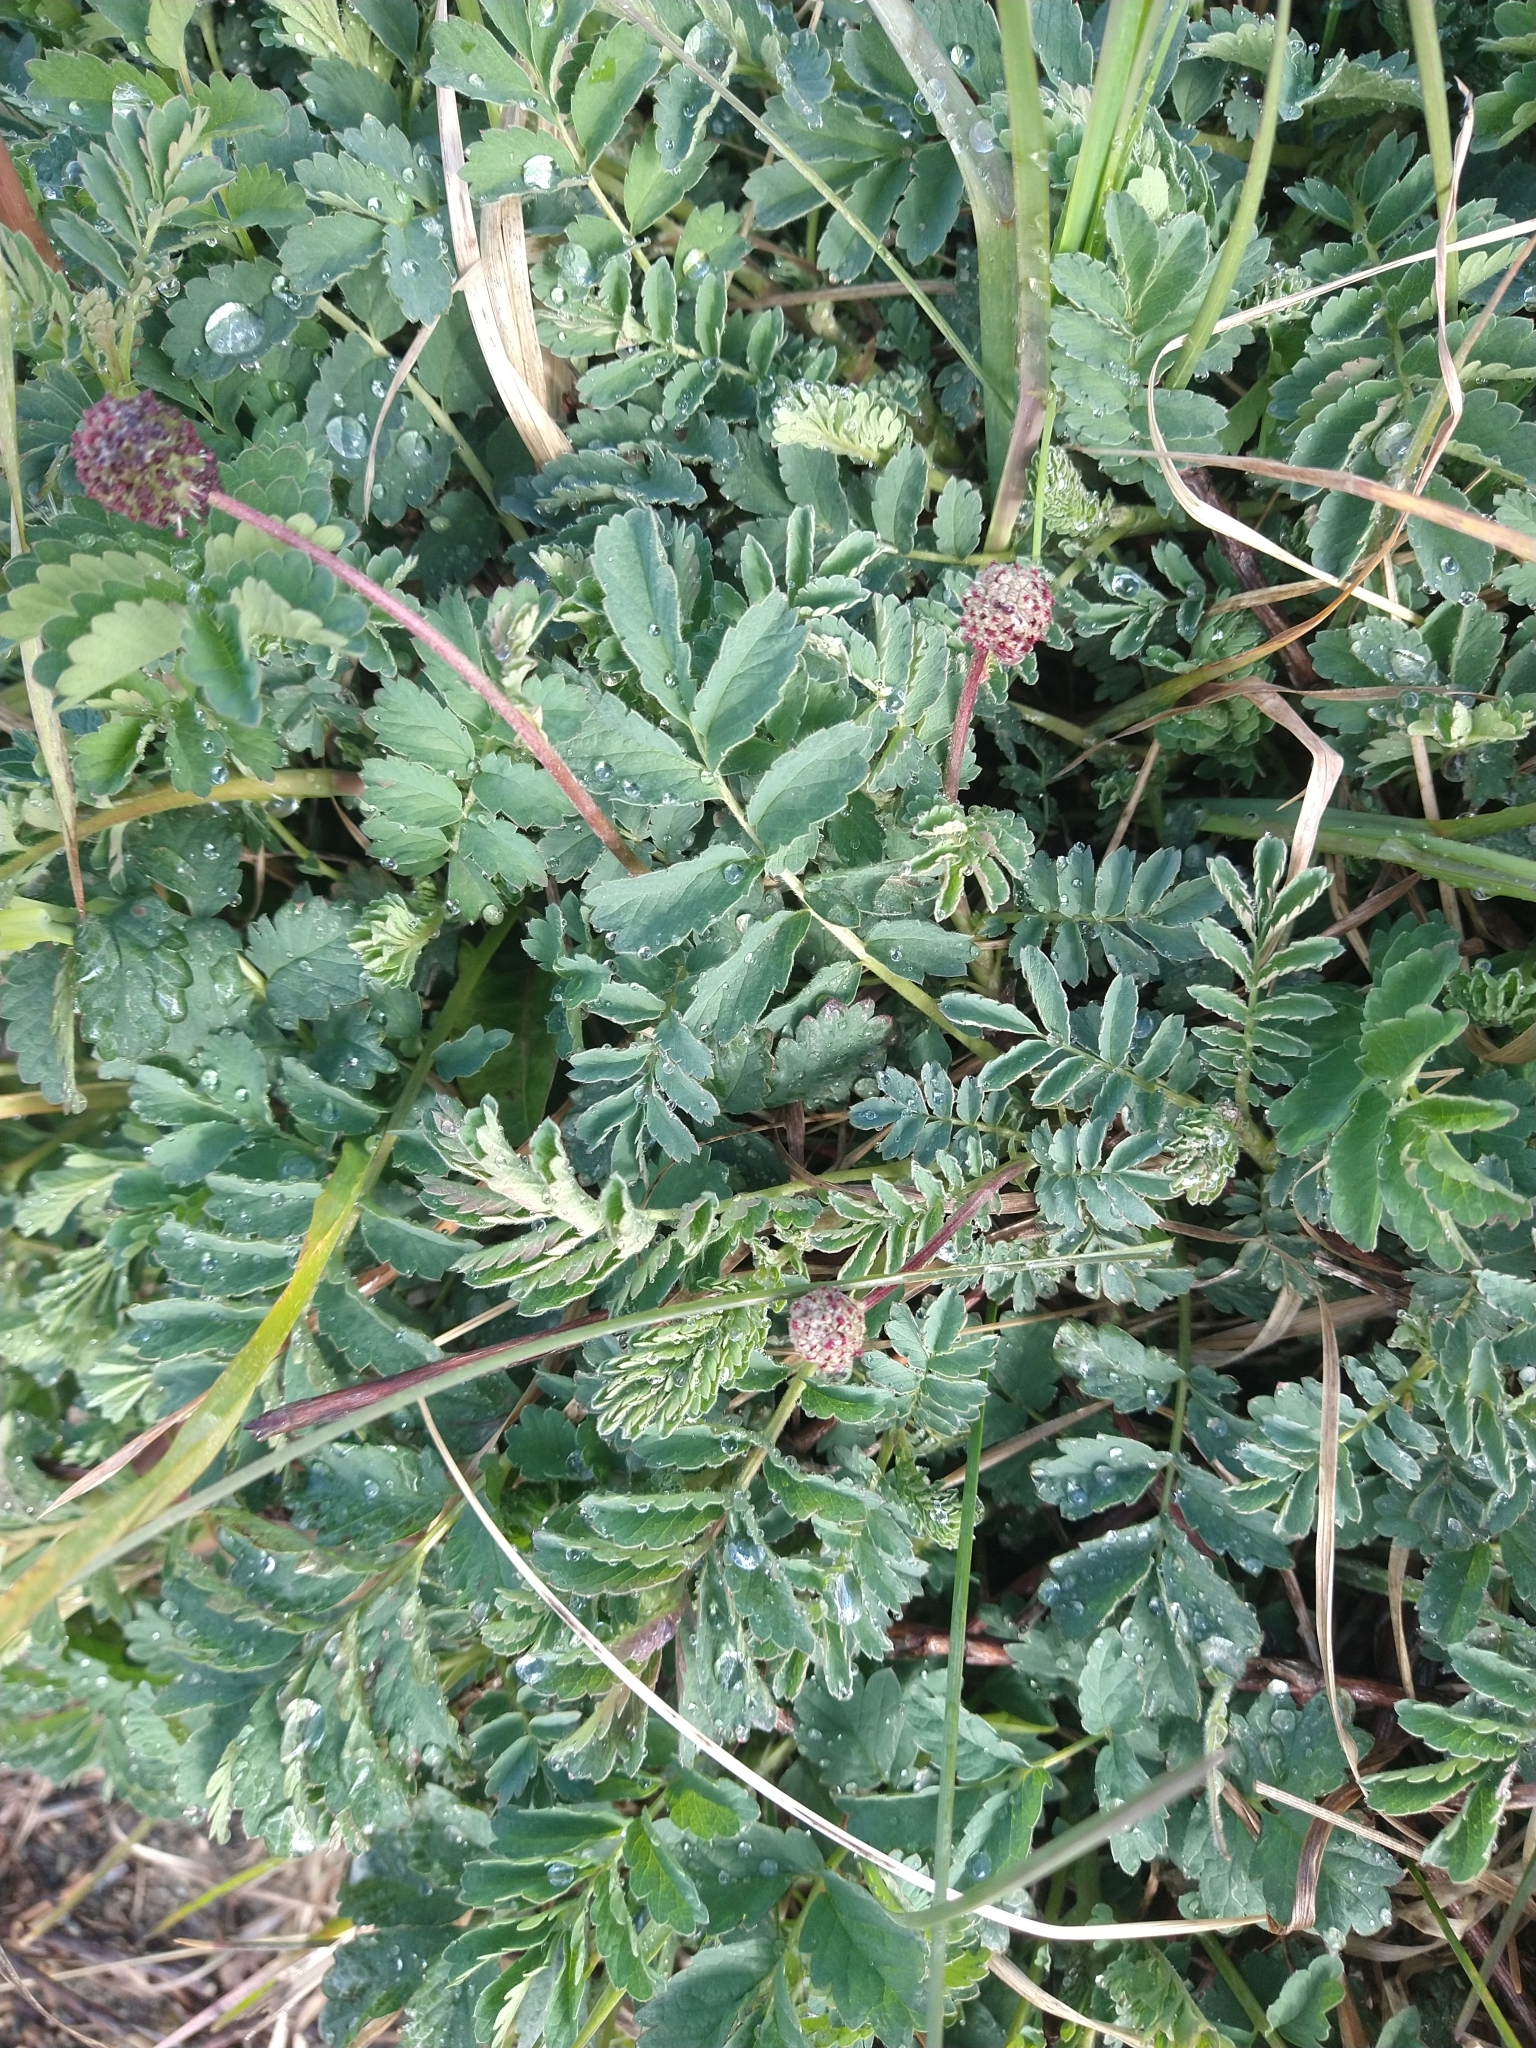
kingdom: Plantae
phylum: Tracheophyta
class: Magnoliopsida
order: Rosales
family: Rosaceae
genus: Acaena
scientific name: Acaena magellanica
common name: New zealand burr
